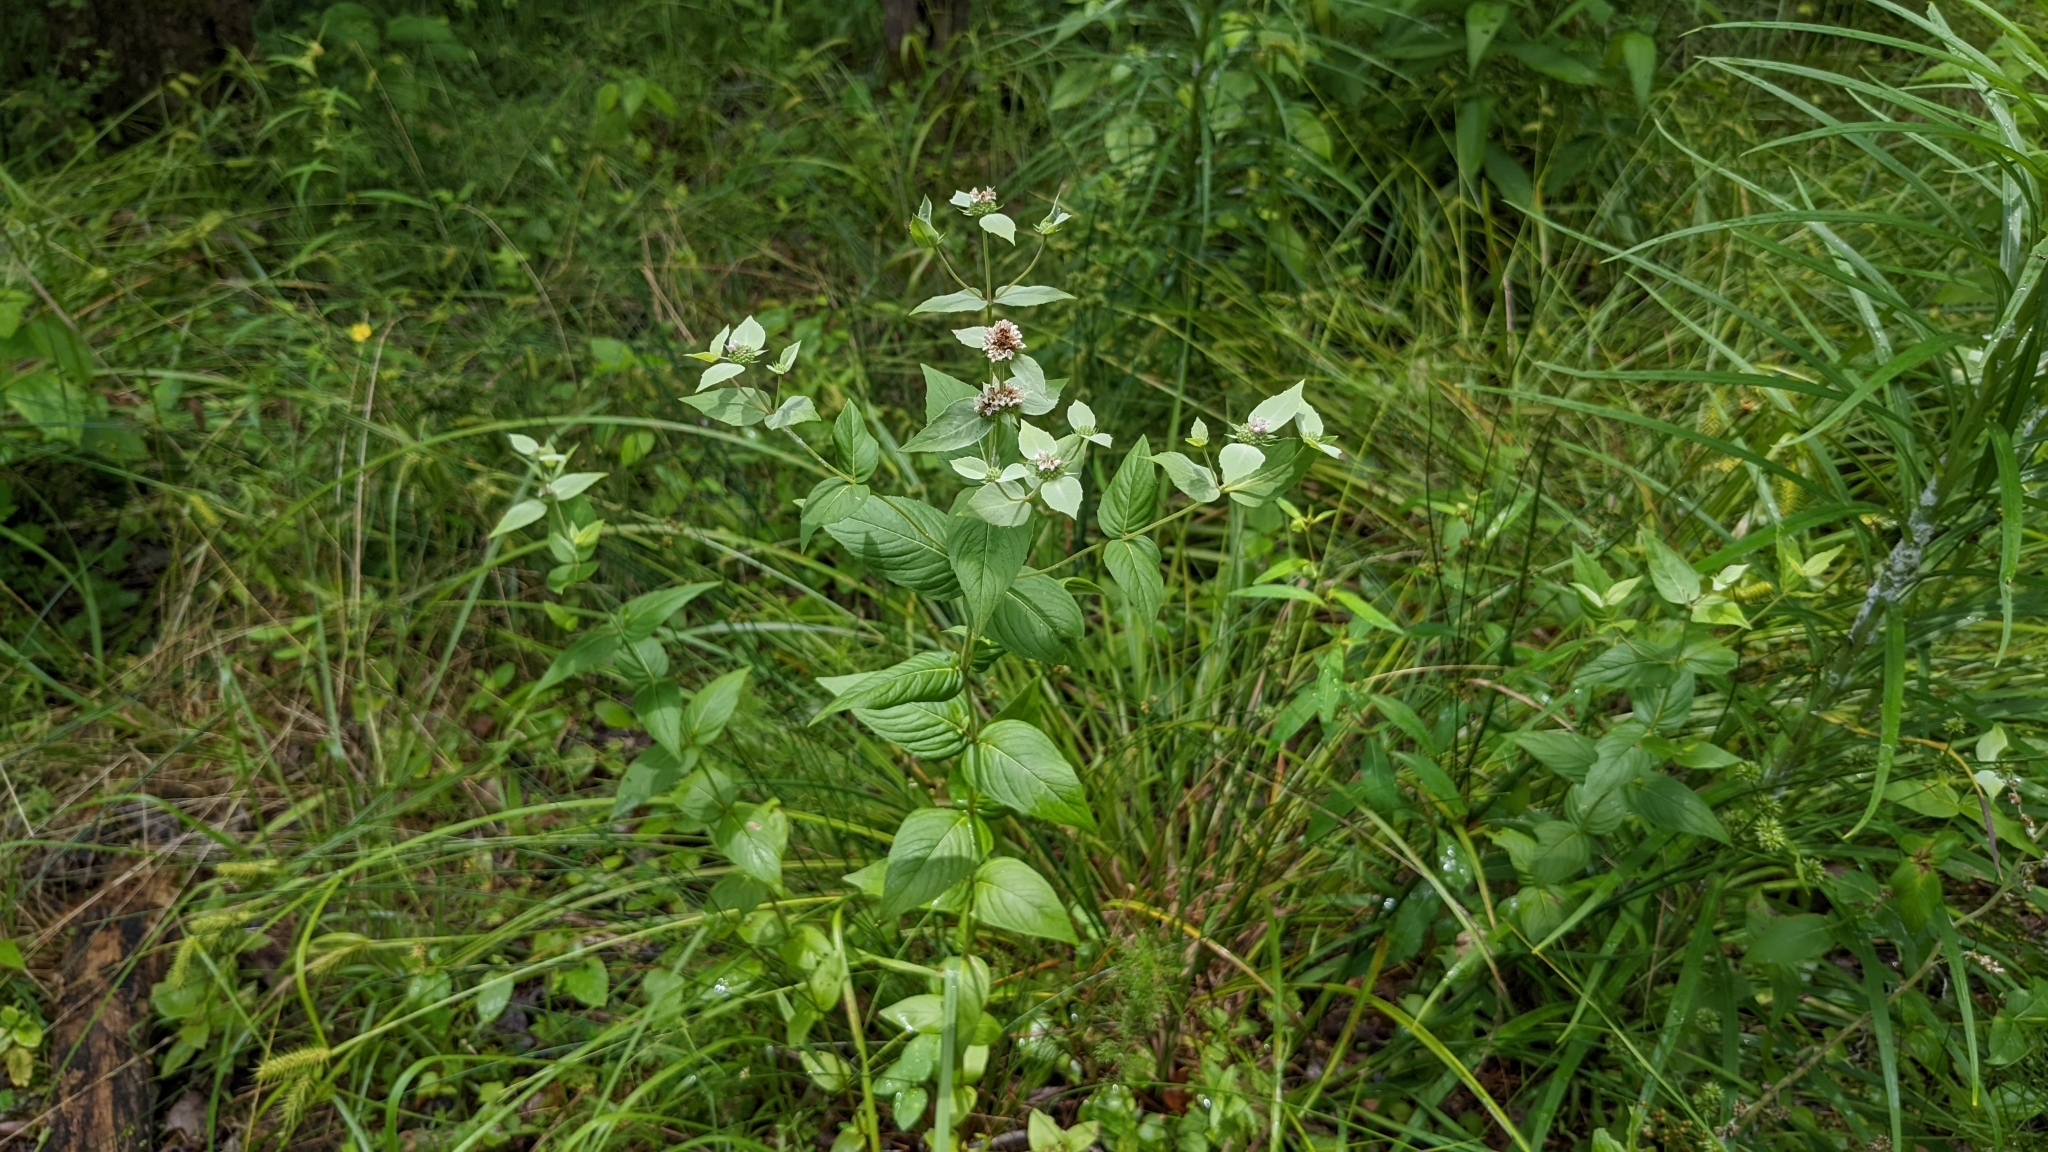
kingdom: Plantae
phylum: Tracheophyta
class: Magnoliopsida
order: Lamiales
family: Lamiaceae
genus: Pycnanthemum
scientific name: Pycnanthemum muticum
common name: Blunt mountain-mint
